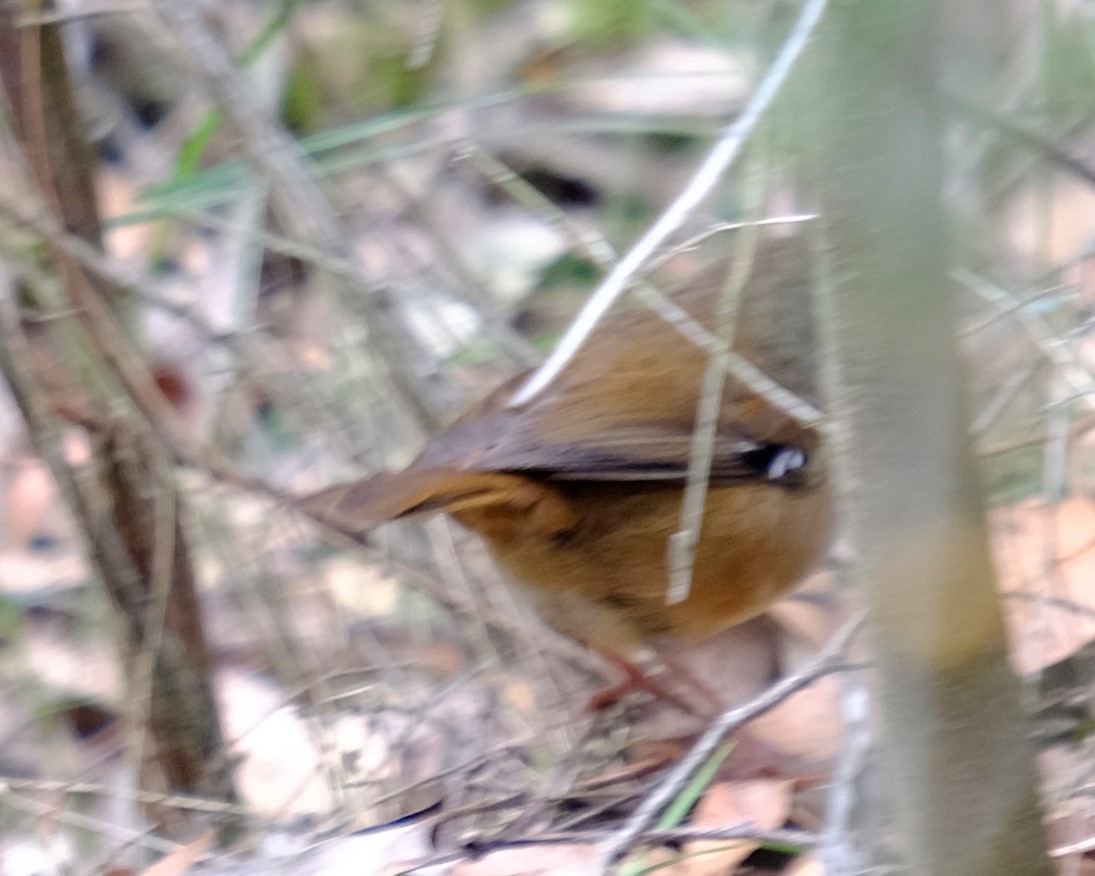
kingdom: Animalia
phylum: Chordata
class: Aves
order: Passeriformes
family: Acanthizidae
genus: Sericornis
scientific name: Sericornis frontalis
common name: White-browed scrubwren
